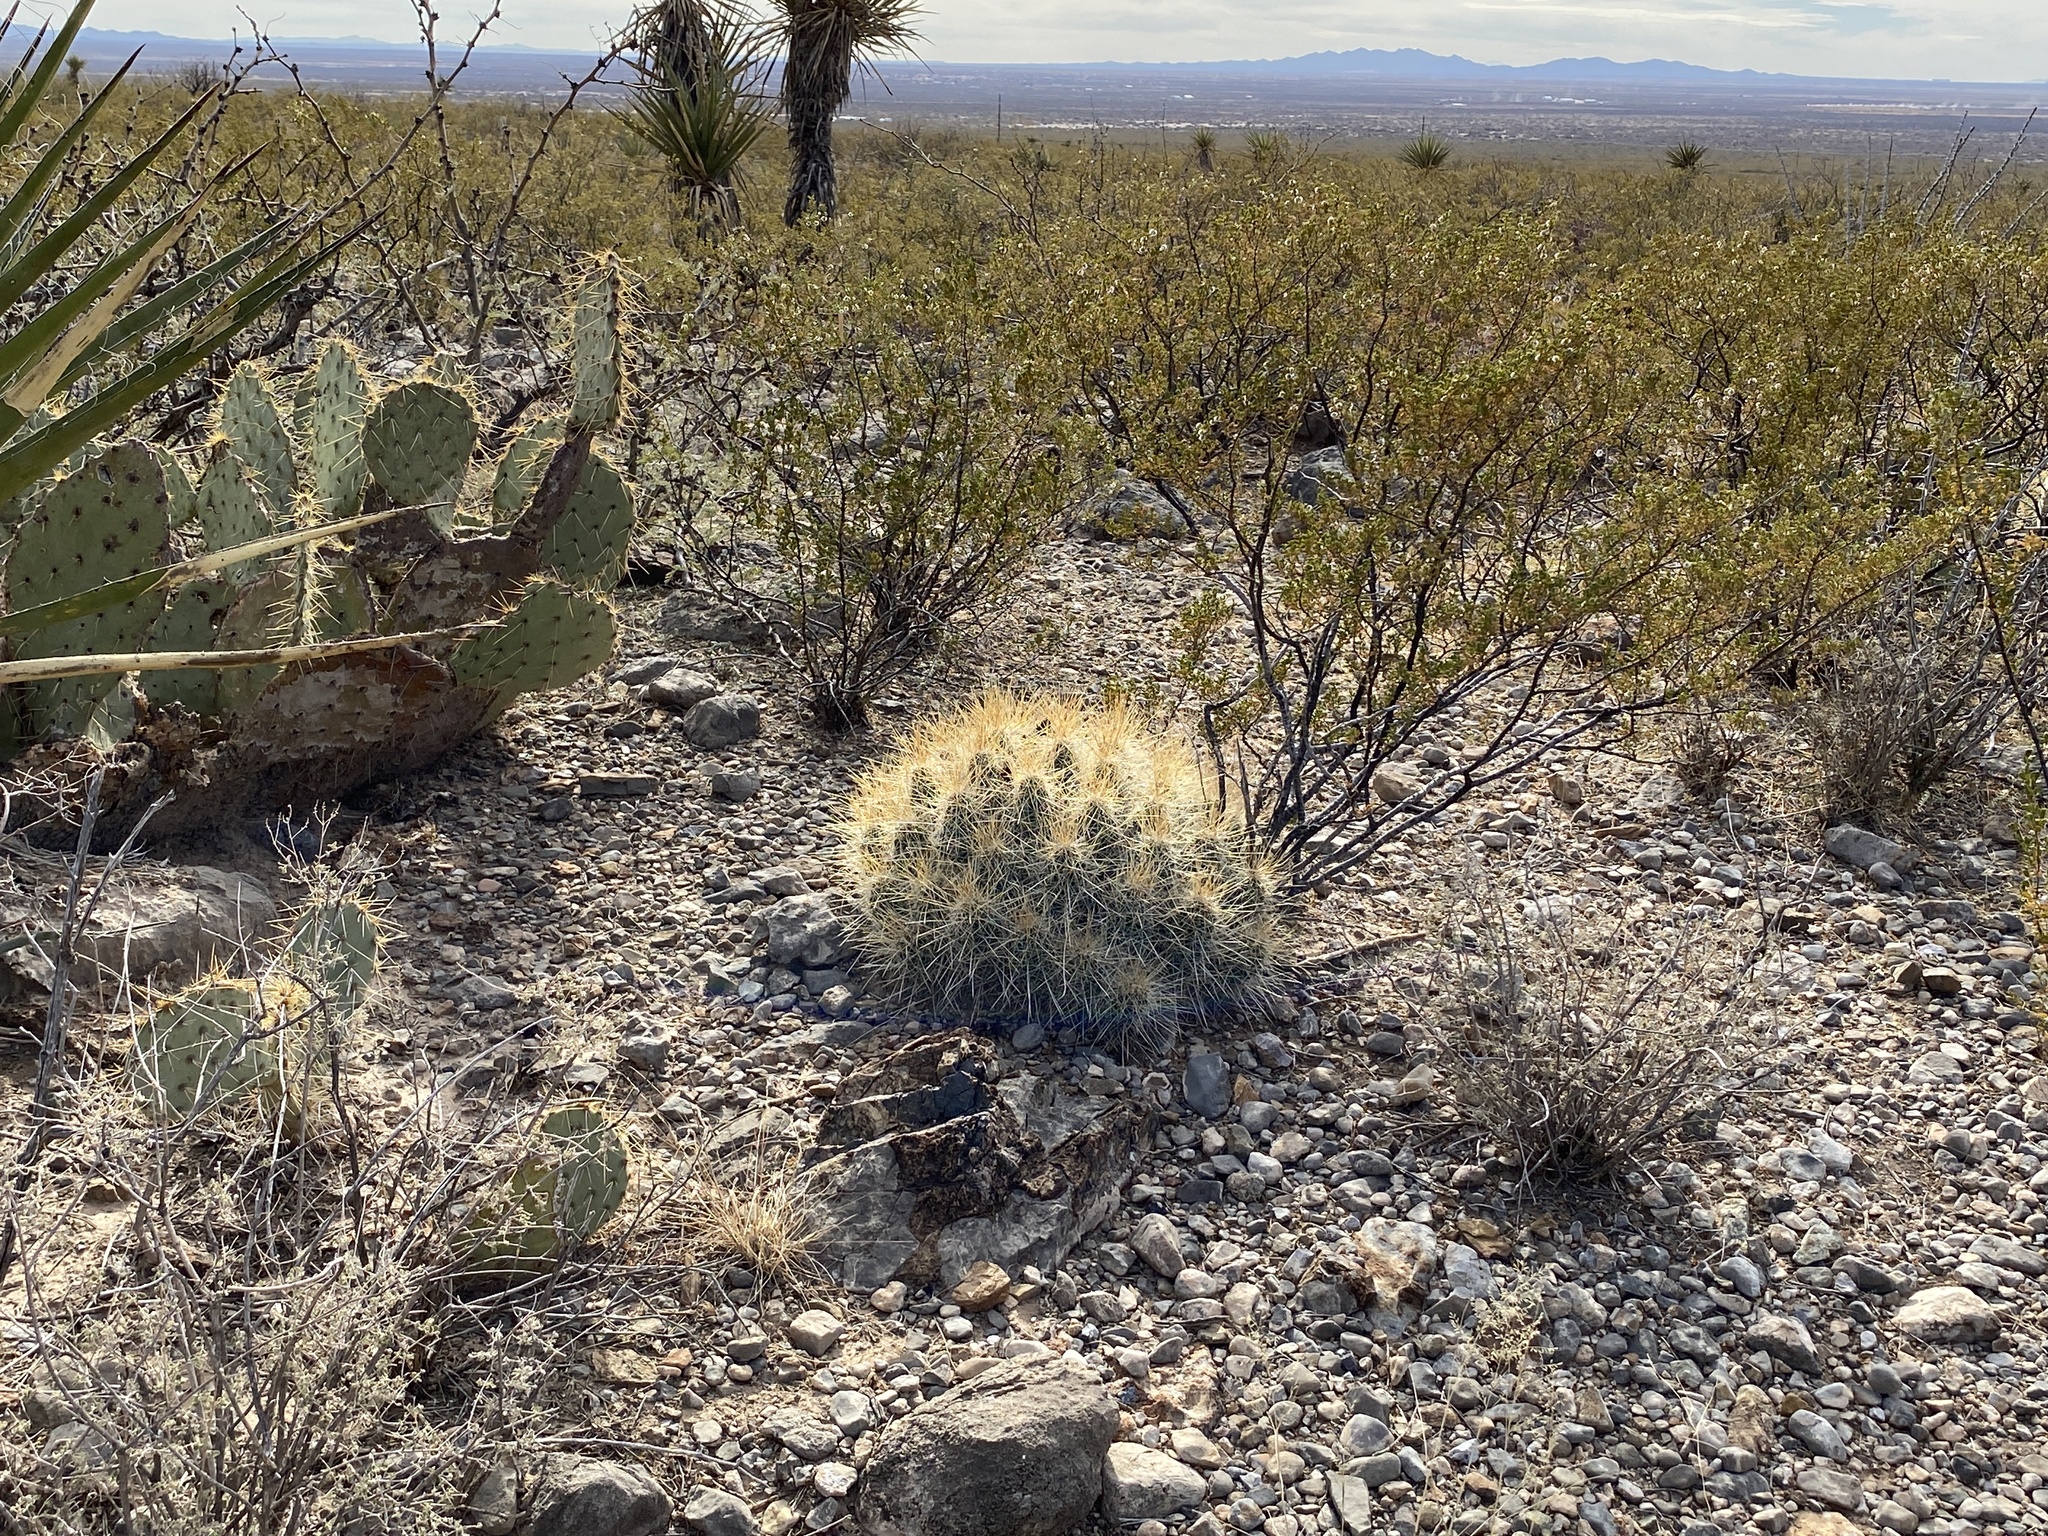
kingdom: Plantae
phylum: Tracheophyta
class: Magnoliopsida
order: Caryophyllales
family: Cactaceae
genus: Echinocereus
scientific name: Echinocereus stramineus
